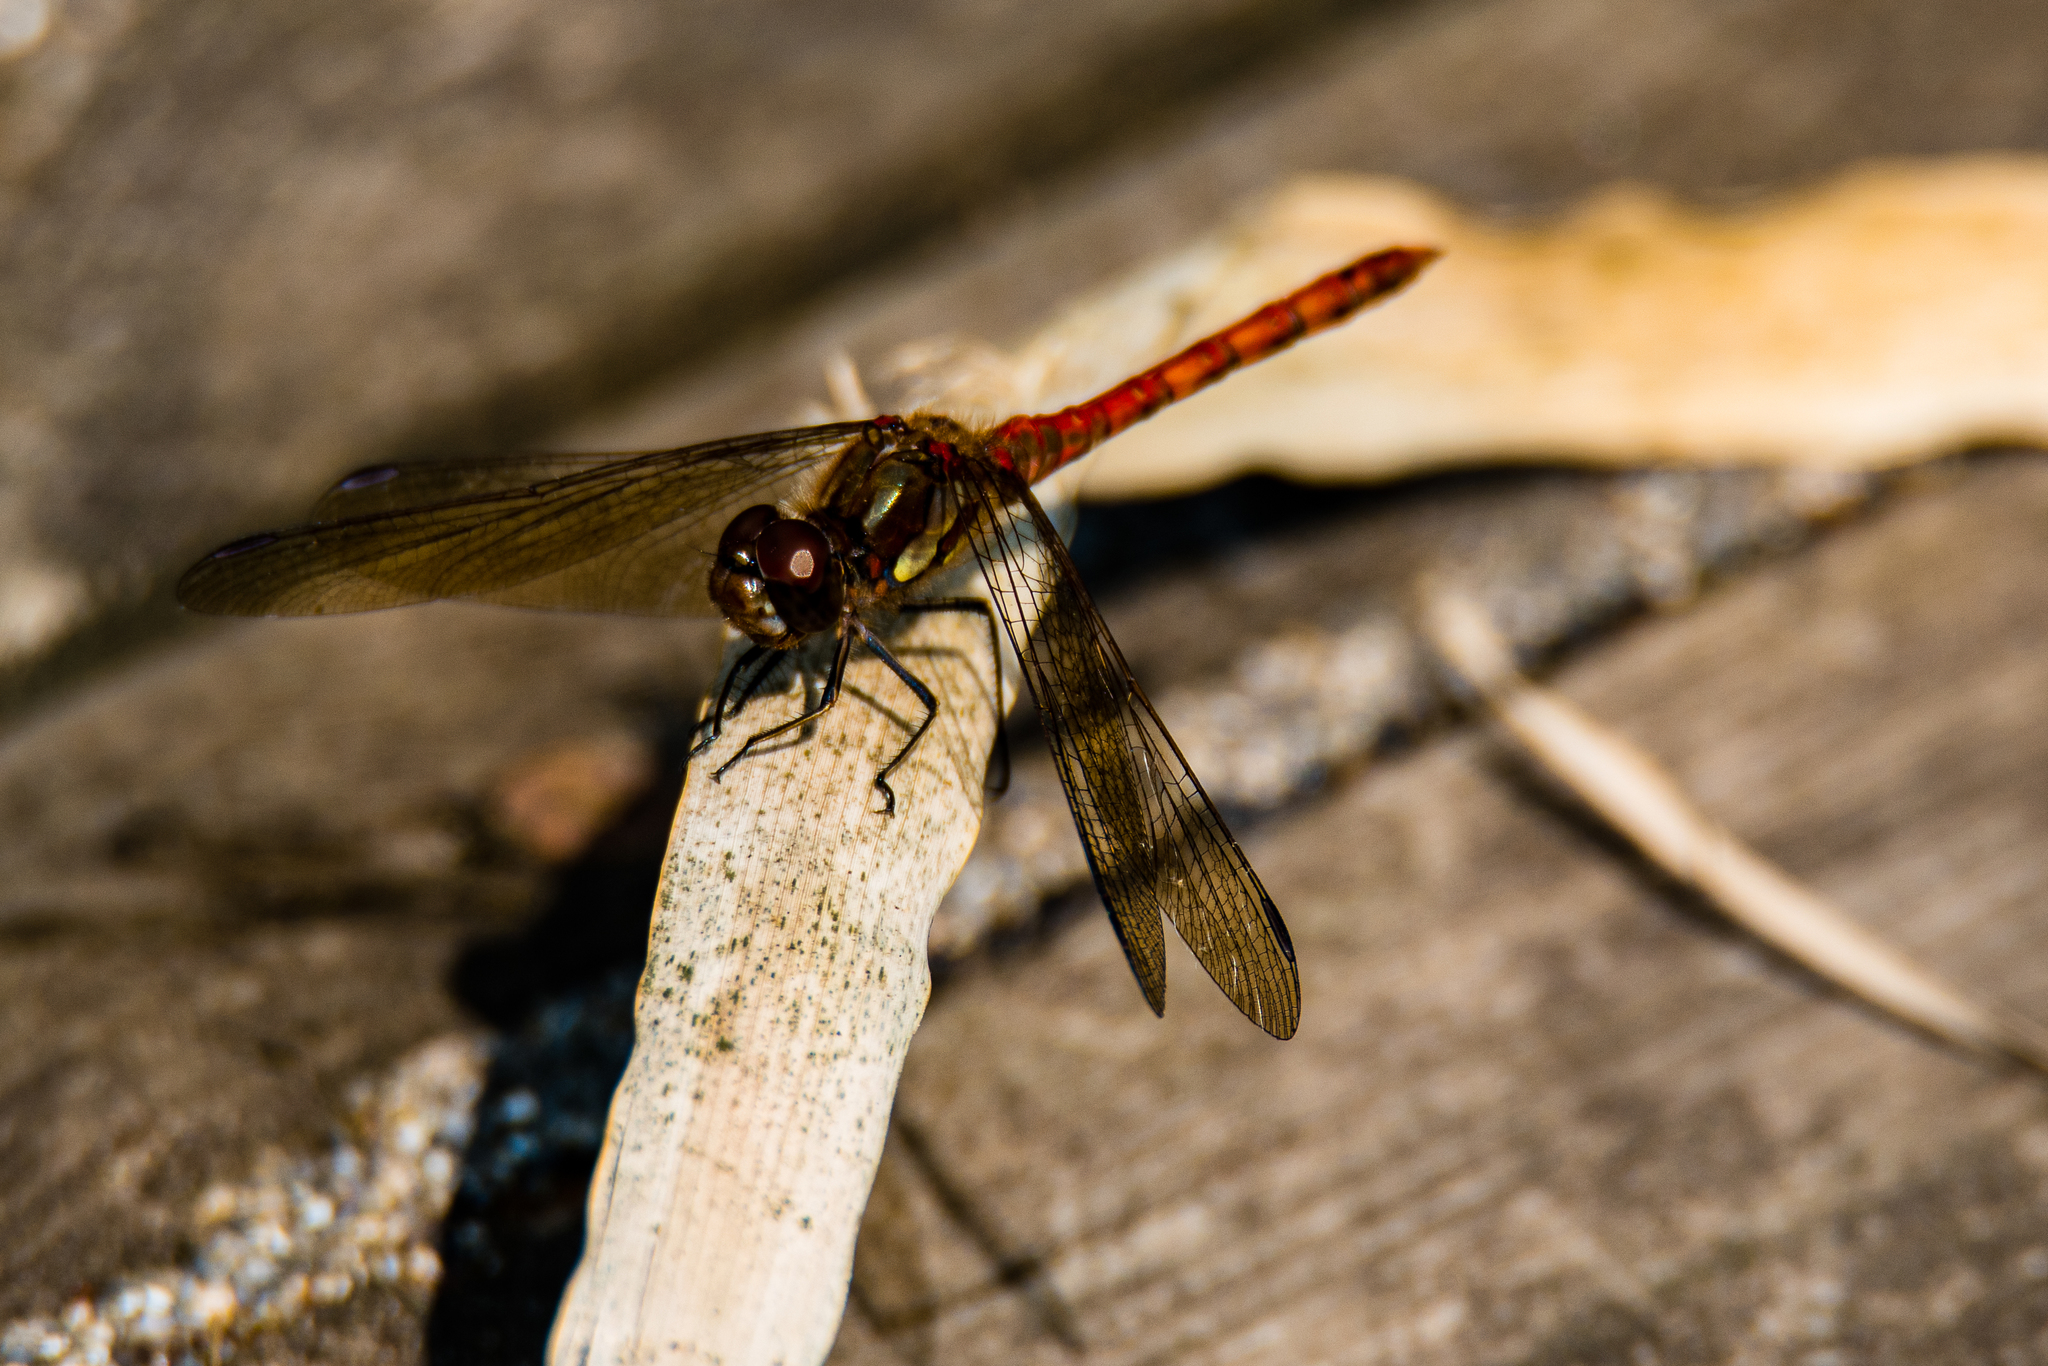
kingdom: Animalia
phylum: Arthropoda
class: Insecta
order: Odonata
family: Libellulidae
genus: Sympetrum
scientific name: Sympetrum striolatum
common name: Common darter
